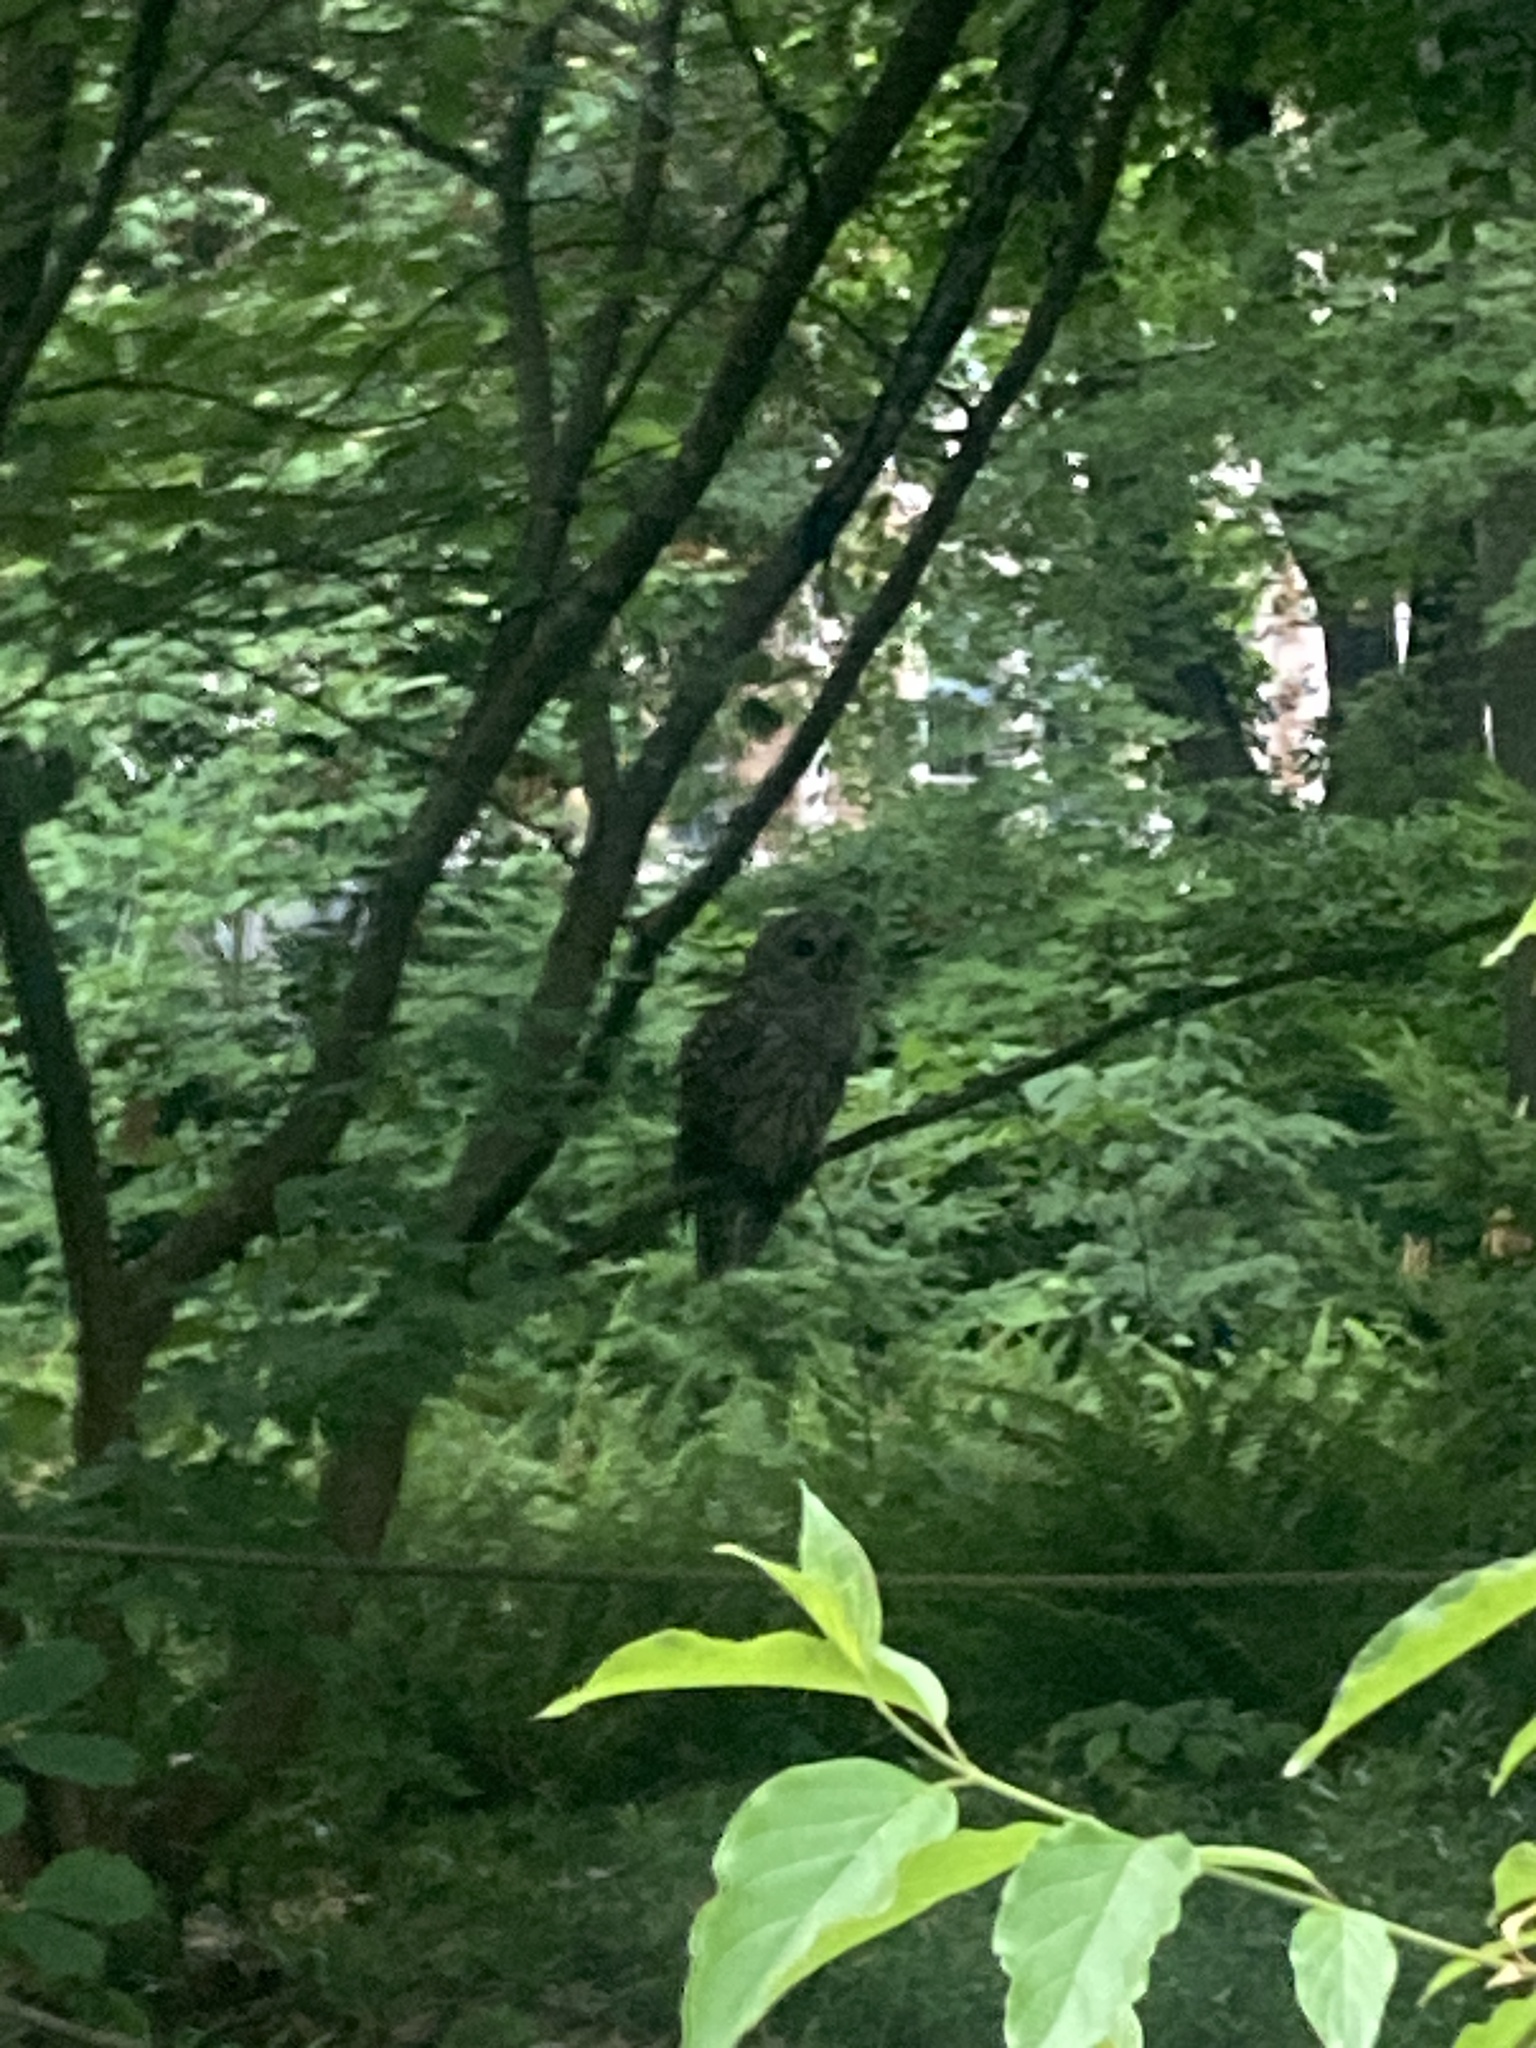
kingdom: Animalia
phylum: Chordata
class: Aves
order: Strigiformes
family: Strigidae
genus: Strix
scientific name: Strix varia
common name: Barred owl
